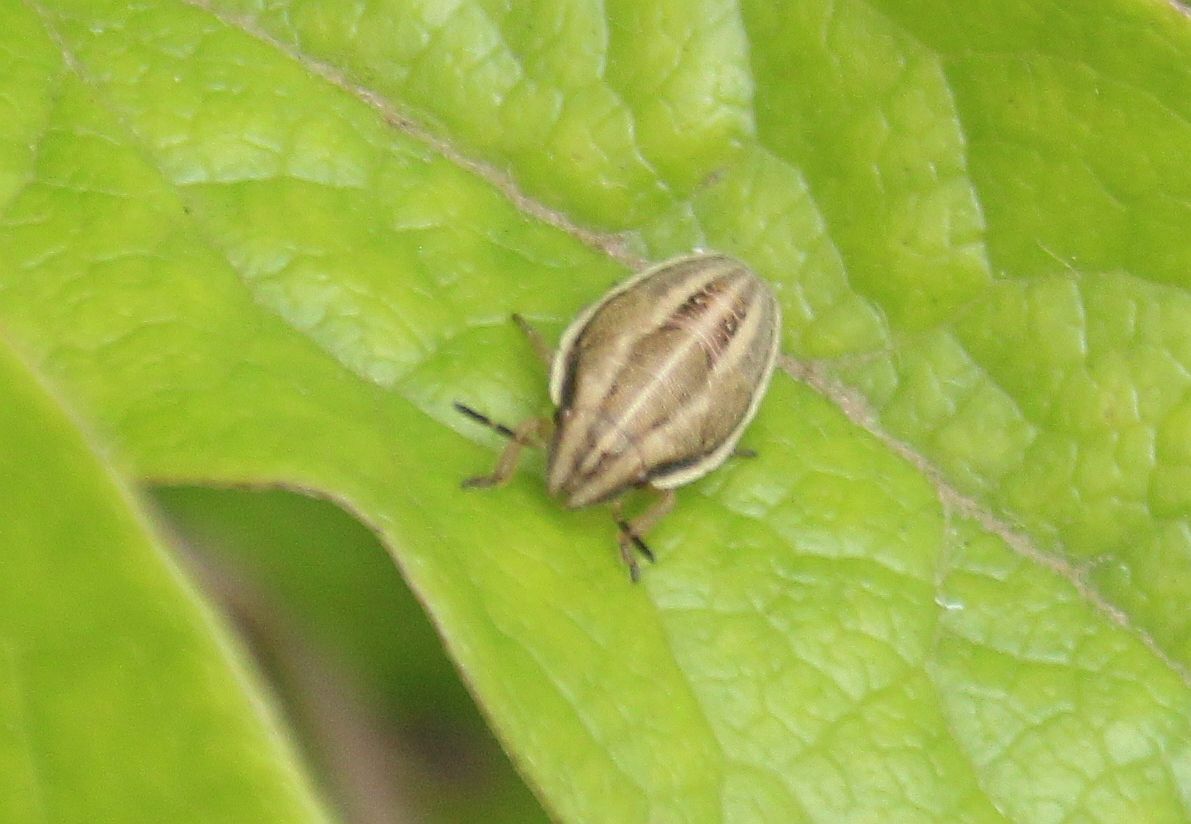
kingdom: Animalia
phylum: Arthropoda
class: Insecta
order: Hemiptera
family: Pentatomidae
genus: Aelia
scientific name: Aelia acuminata
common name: Bishop's mitre
